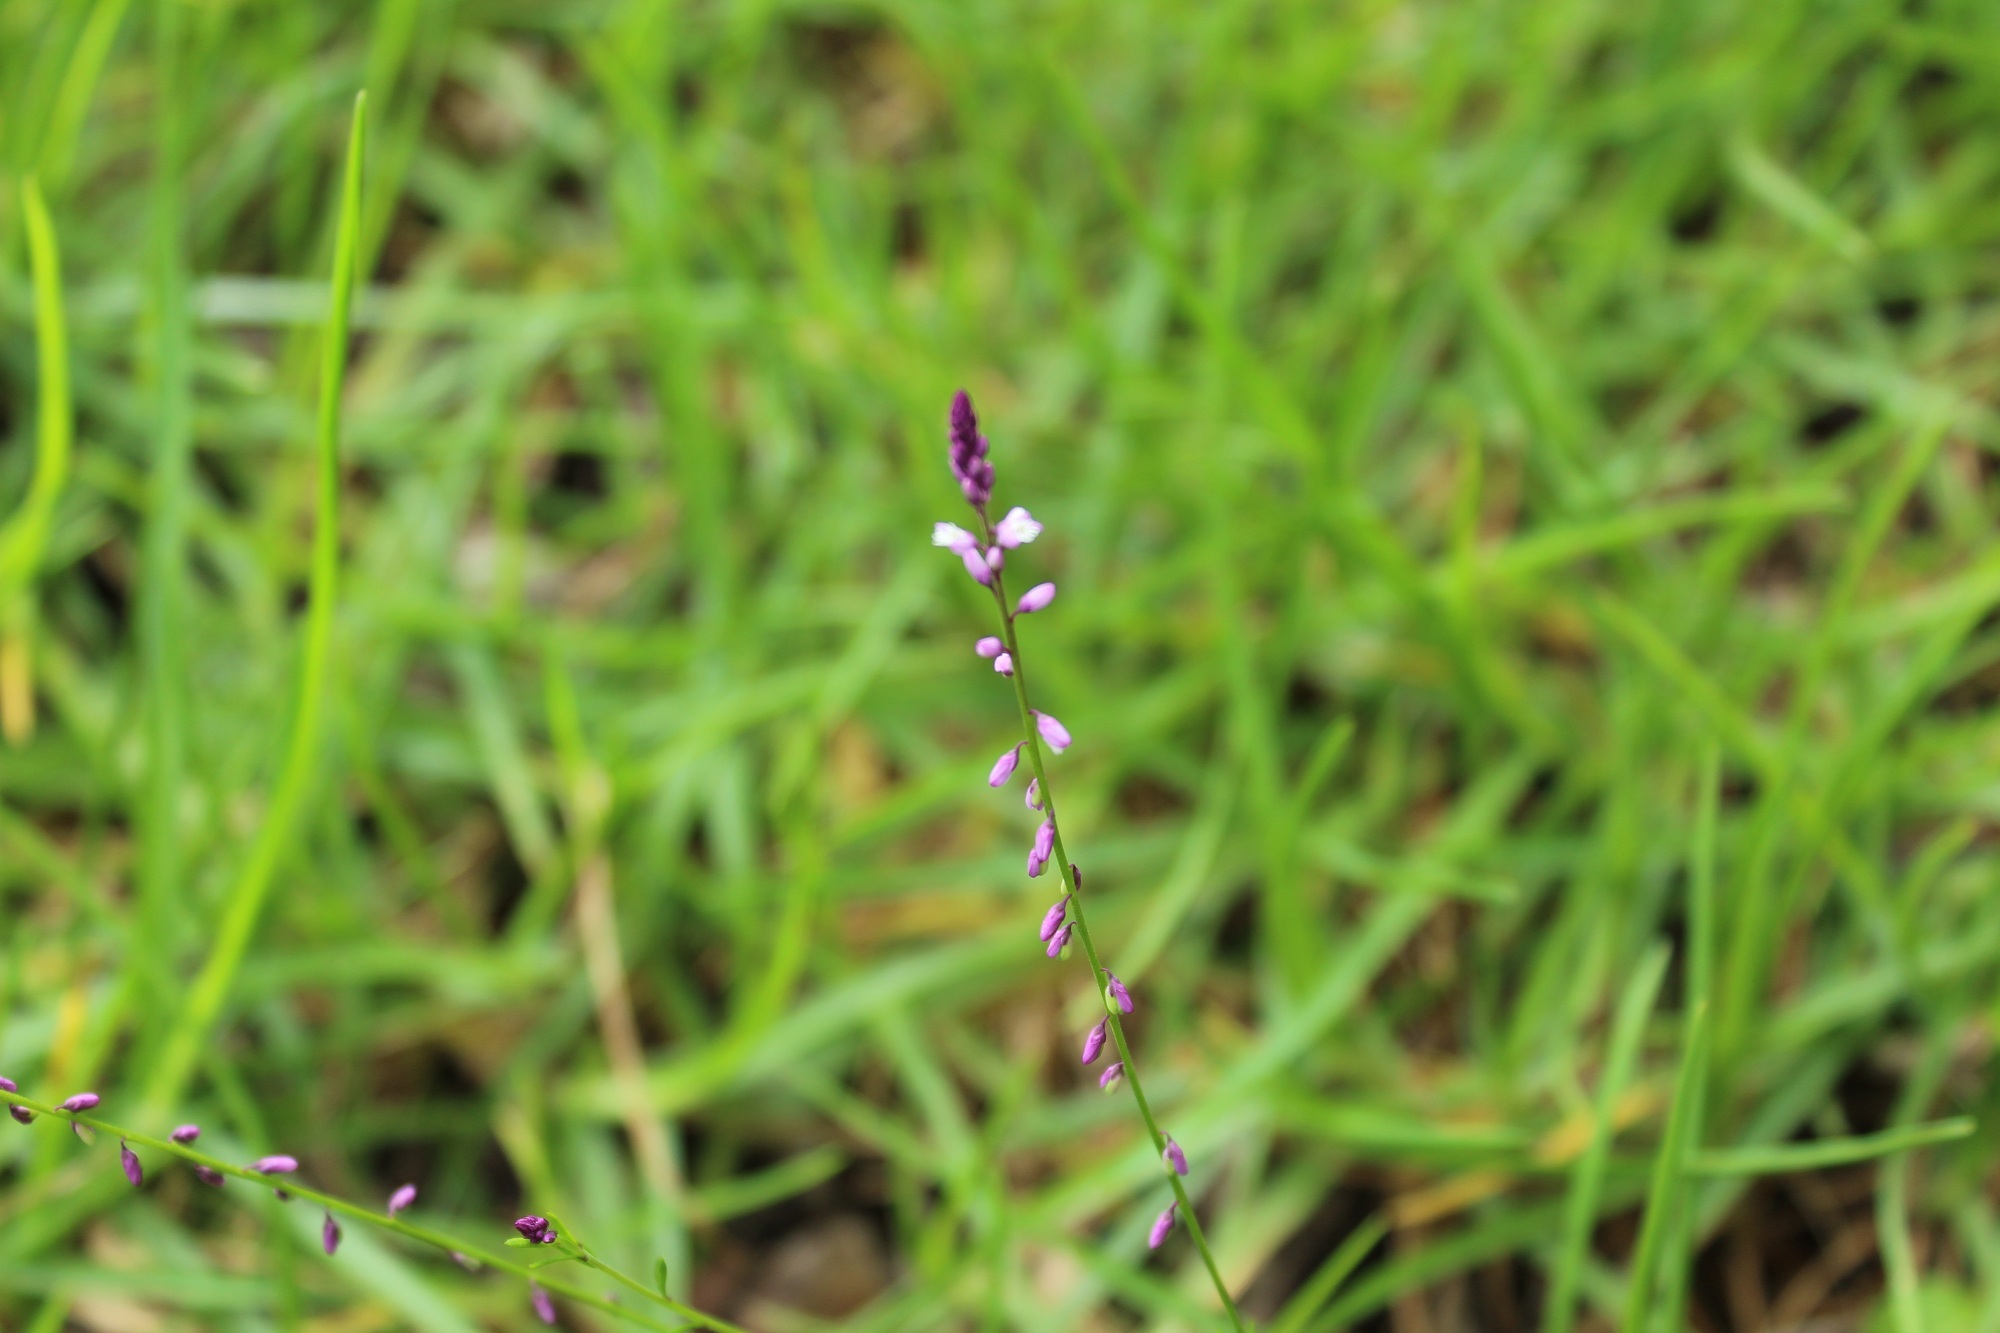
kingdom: Plantae
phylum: Tracheophyta
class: Magnoliopsida
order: Fabales
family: Polygalaceae
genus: Polygala
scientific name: Polygala paniculata
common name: Orosne
